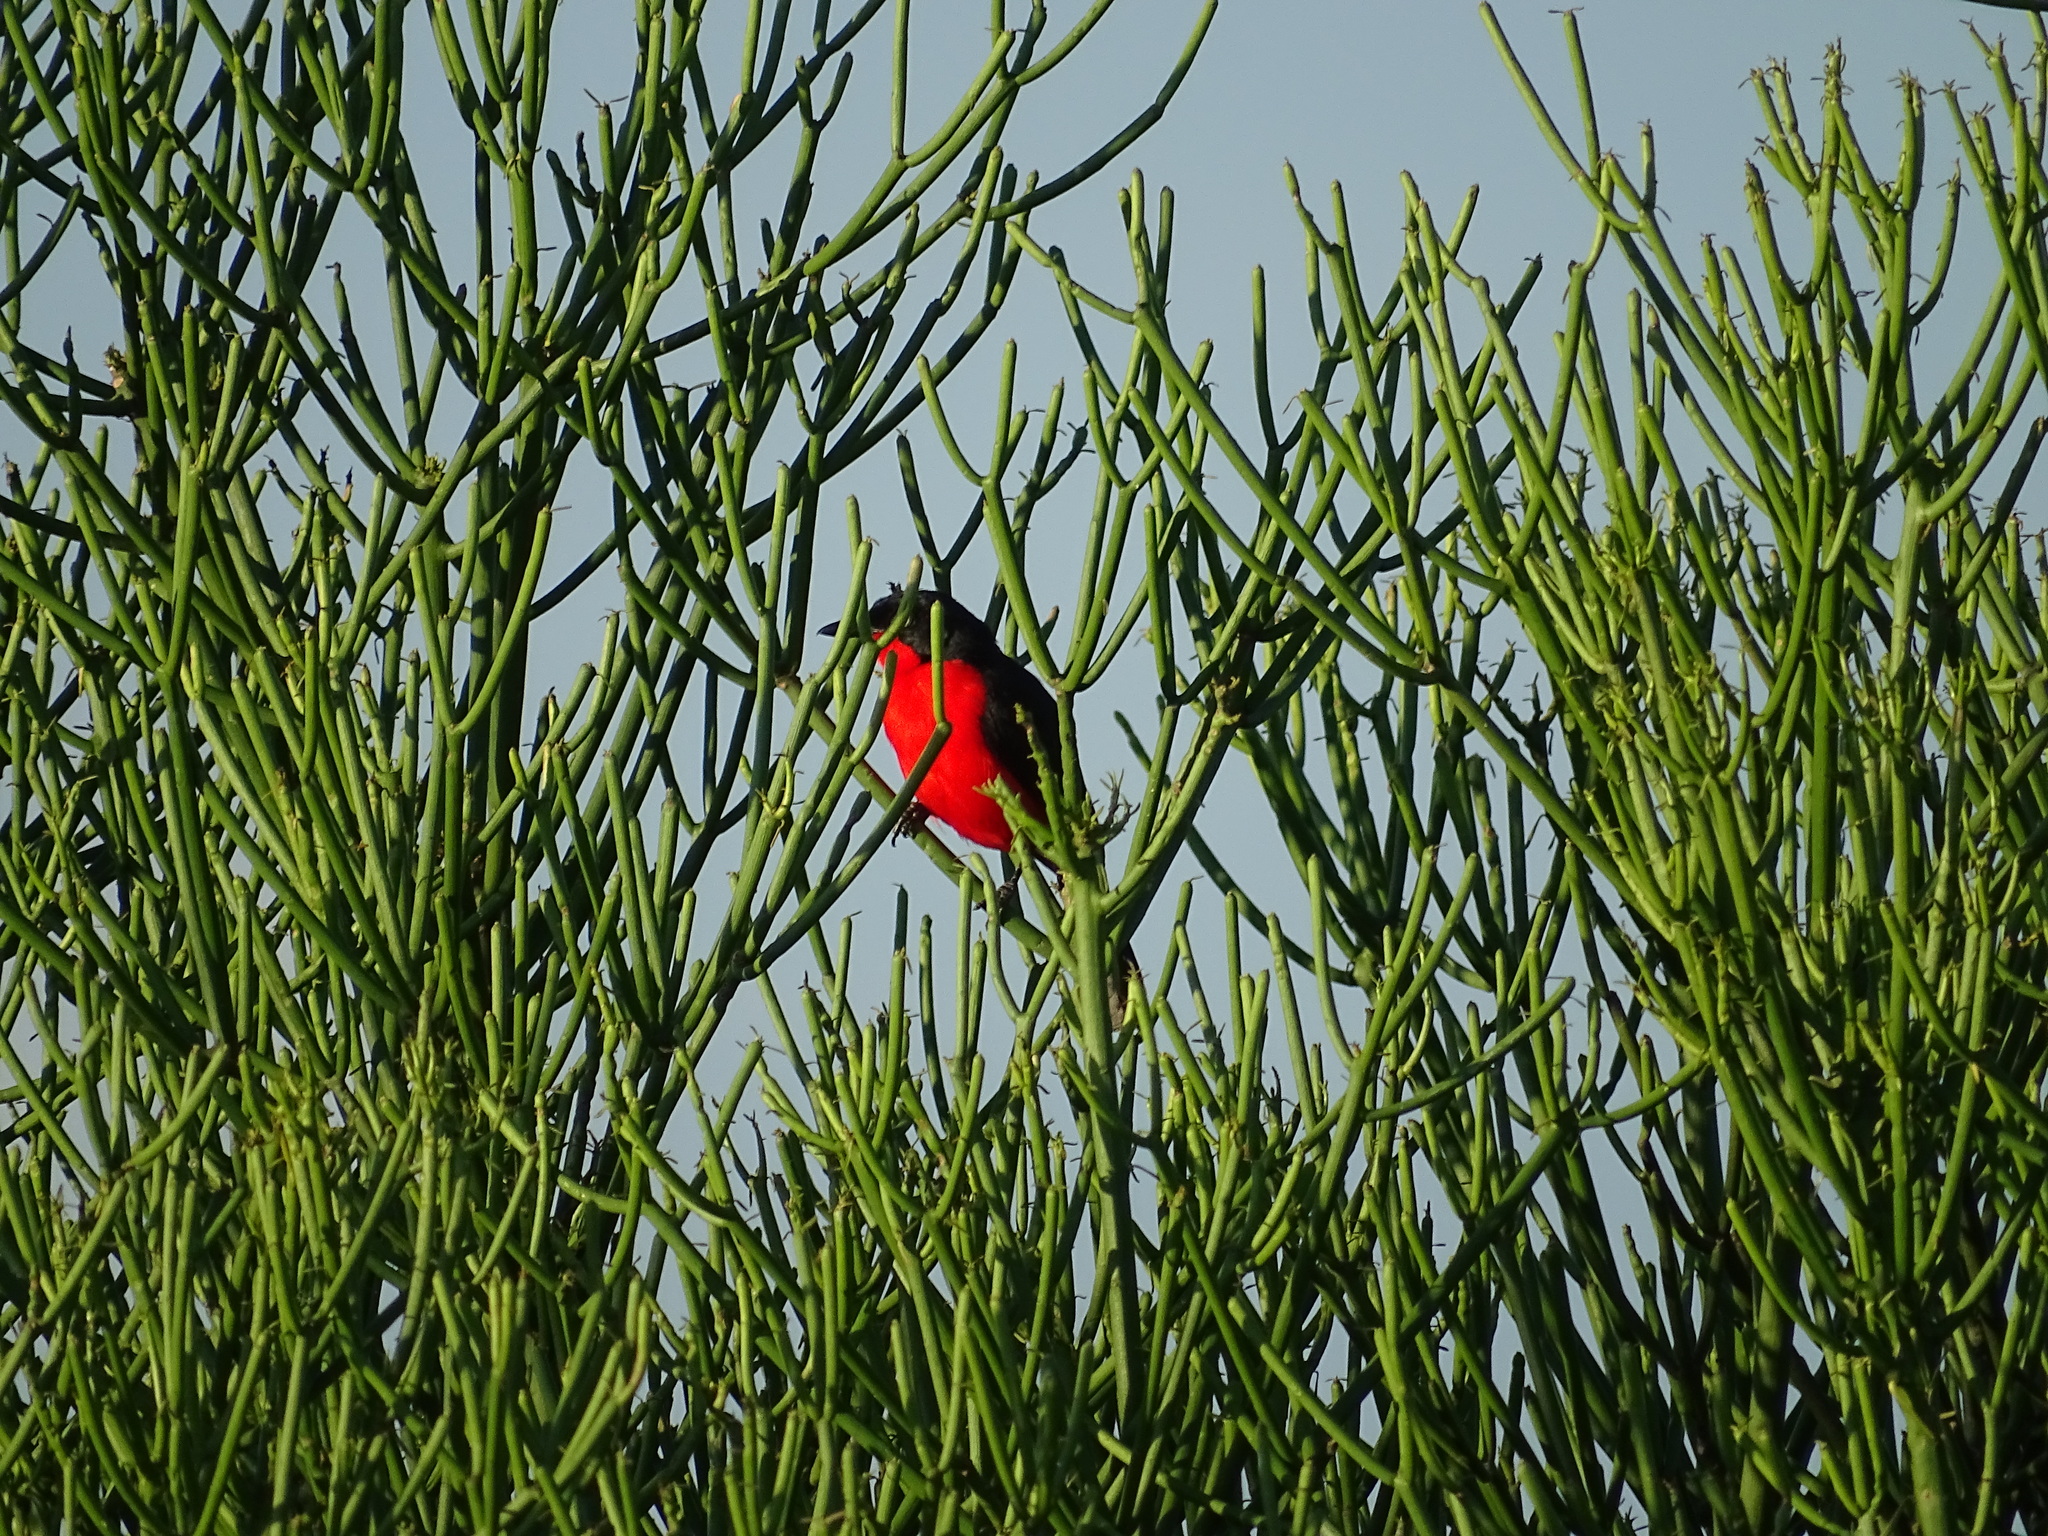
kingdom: Animalia
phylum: Chordata
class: Aves
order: Passeriformes
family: Malaconotidae
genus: Laniarius
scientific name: Laniarius erythrogaster
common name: Black-headed gonolek
